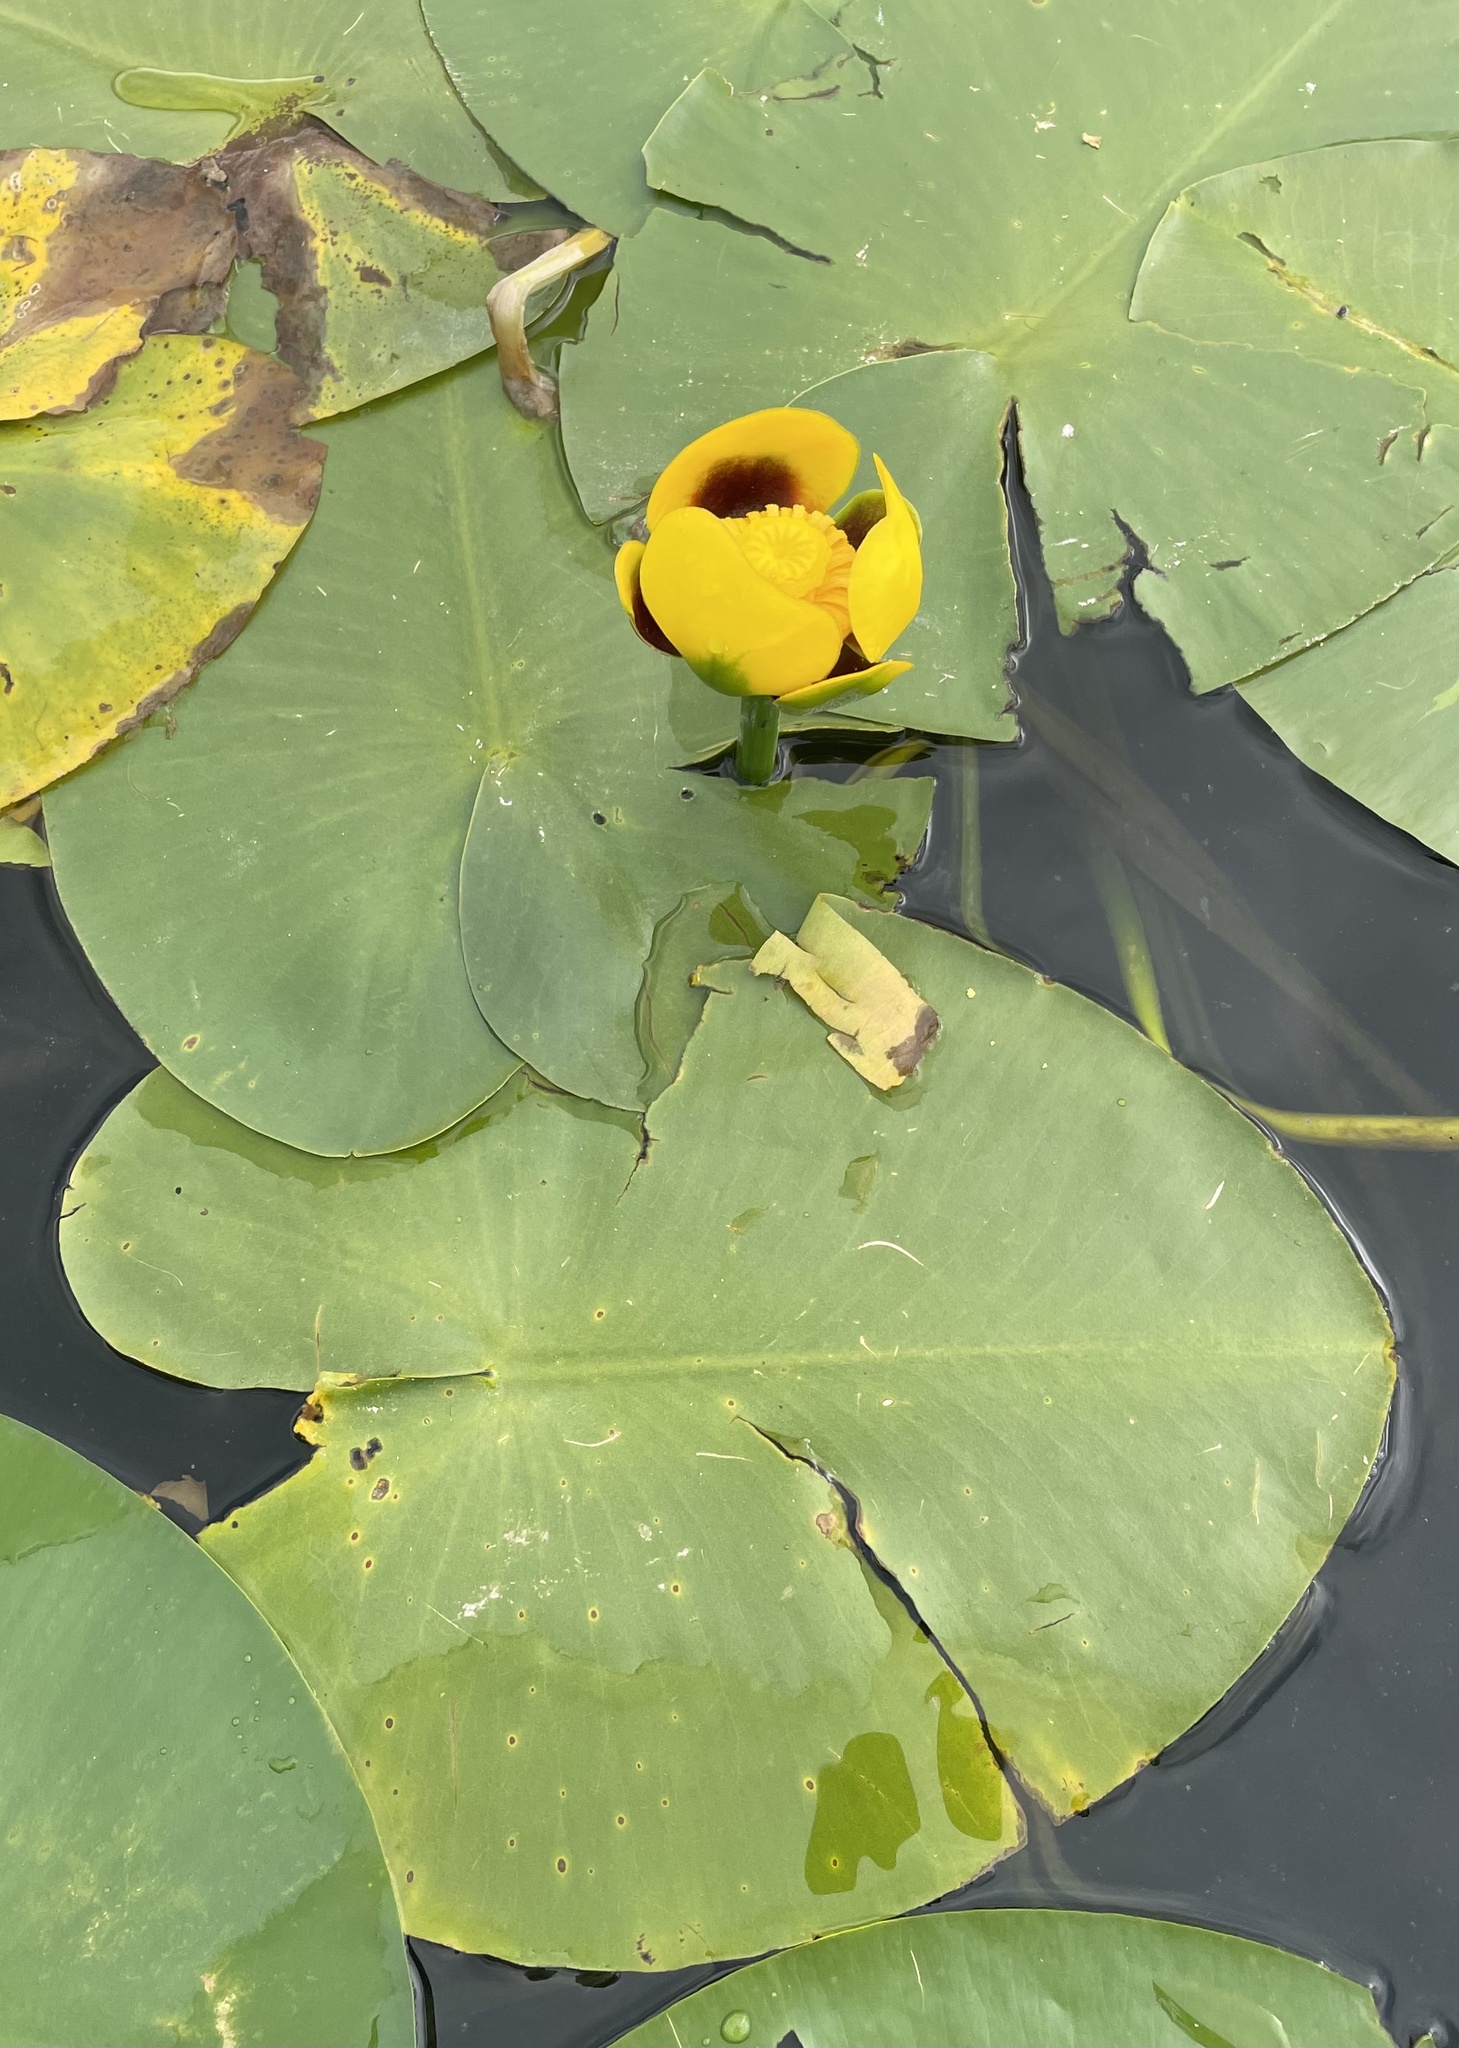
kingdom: Plantae
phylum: Tracheophyta
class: Magnoliopsida
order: Nymphaeales
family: Nymphaeaceae
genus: Nuphar
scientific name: Nuphar variegata
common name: Beaver-root
